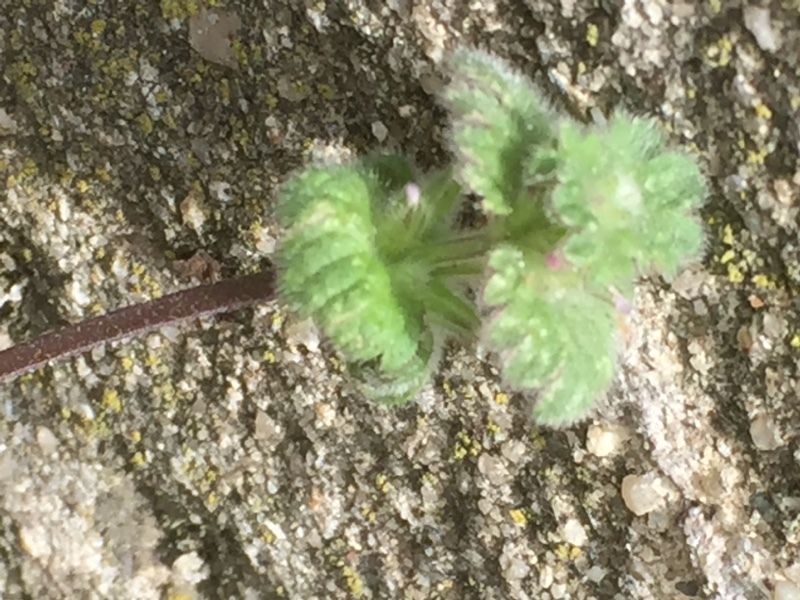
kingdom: Plantae
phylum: Tracheophyta
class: Magnoliopsida
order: Lamiales
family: Lamiaceae
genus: Lamium
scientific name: Lamium amplexicaule
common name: Henbit dead-nettle
